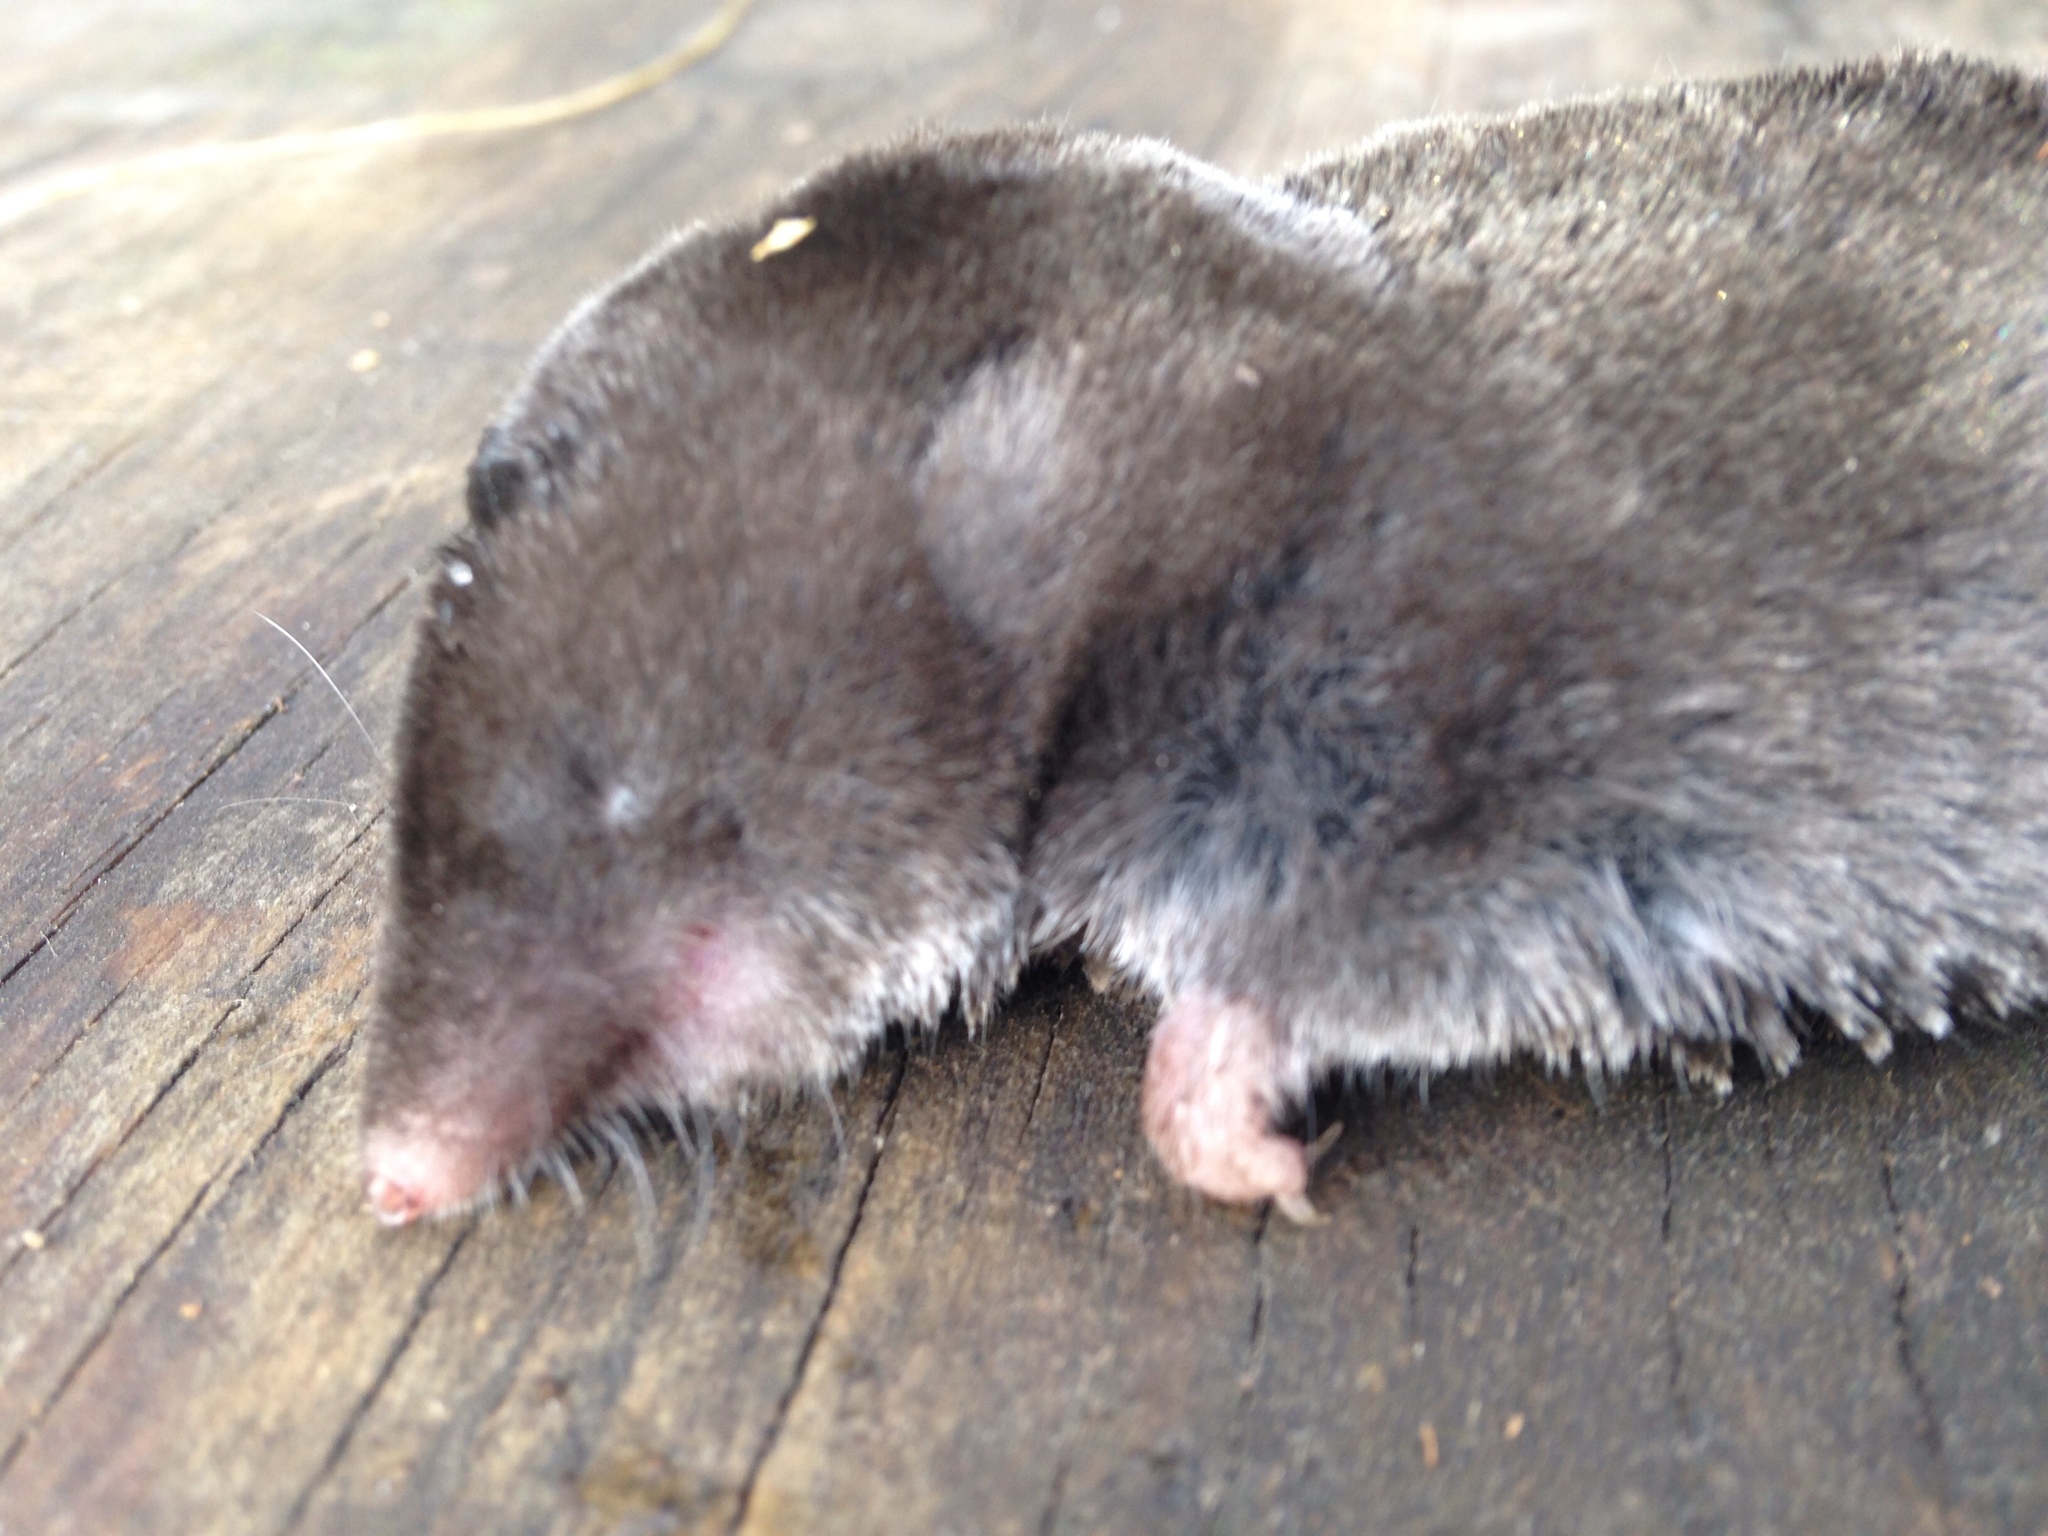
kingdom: Animalia
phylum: Chordata
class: Mammalia
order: Soricomorpha
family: Soricidae
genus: Blarina
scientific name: Blarina brevicauda
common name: Northern short-tailed shrew
